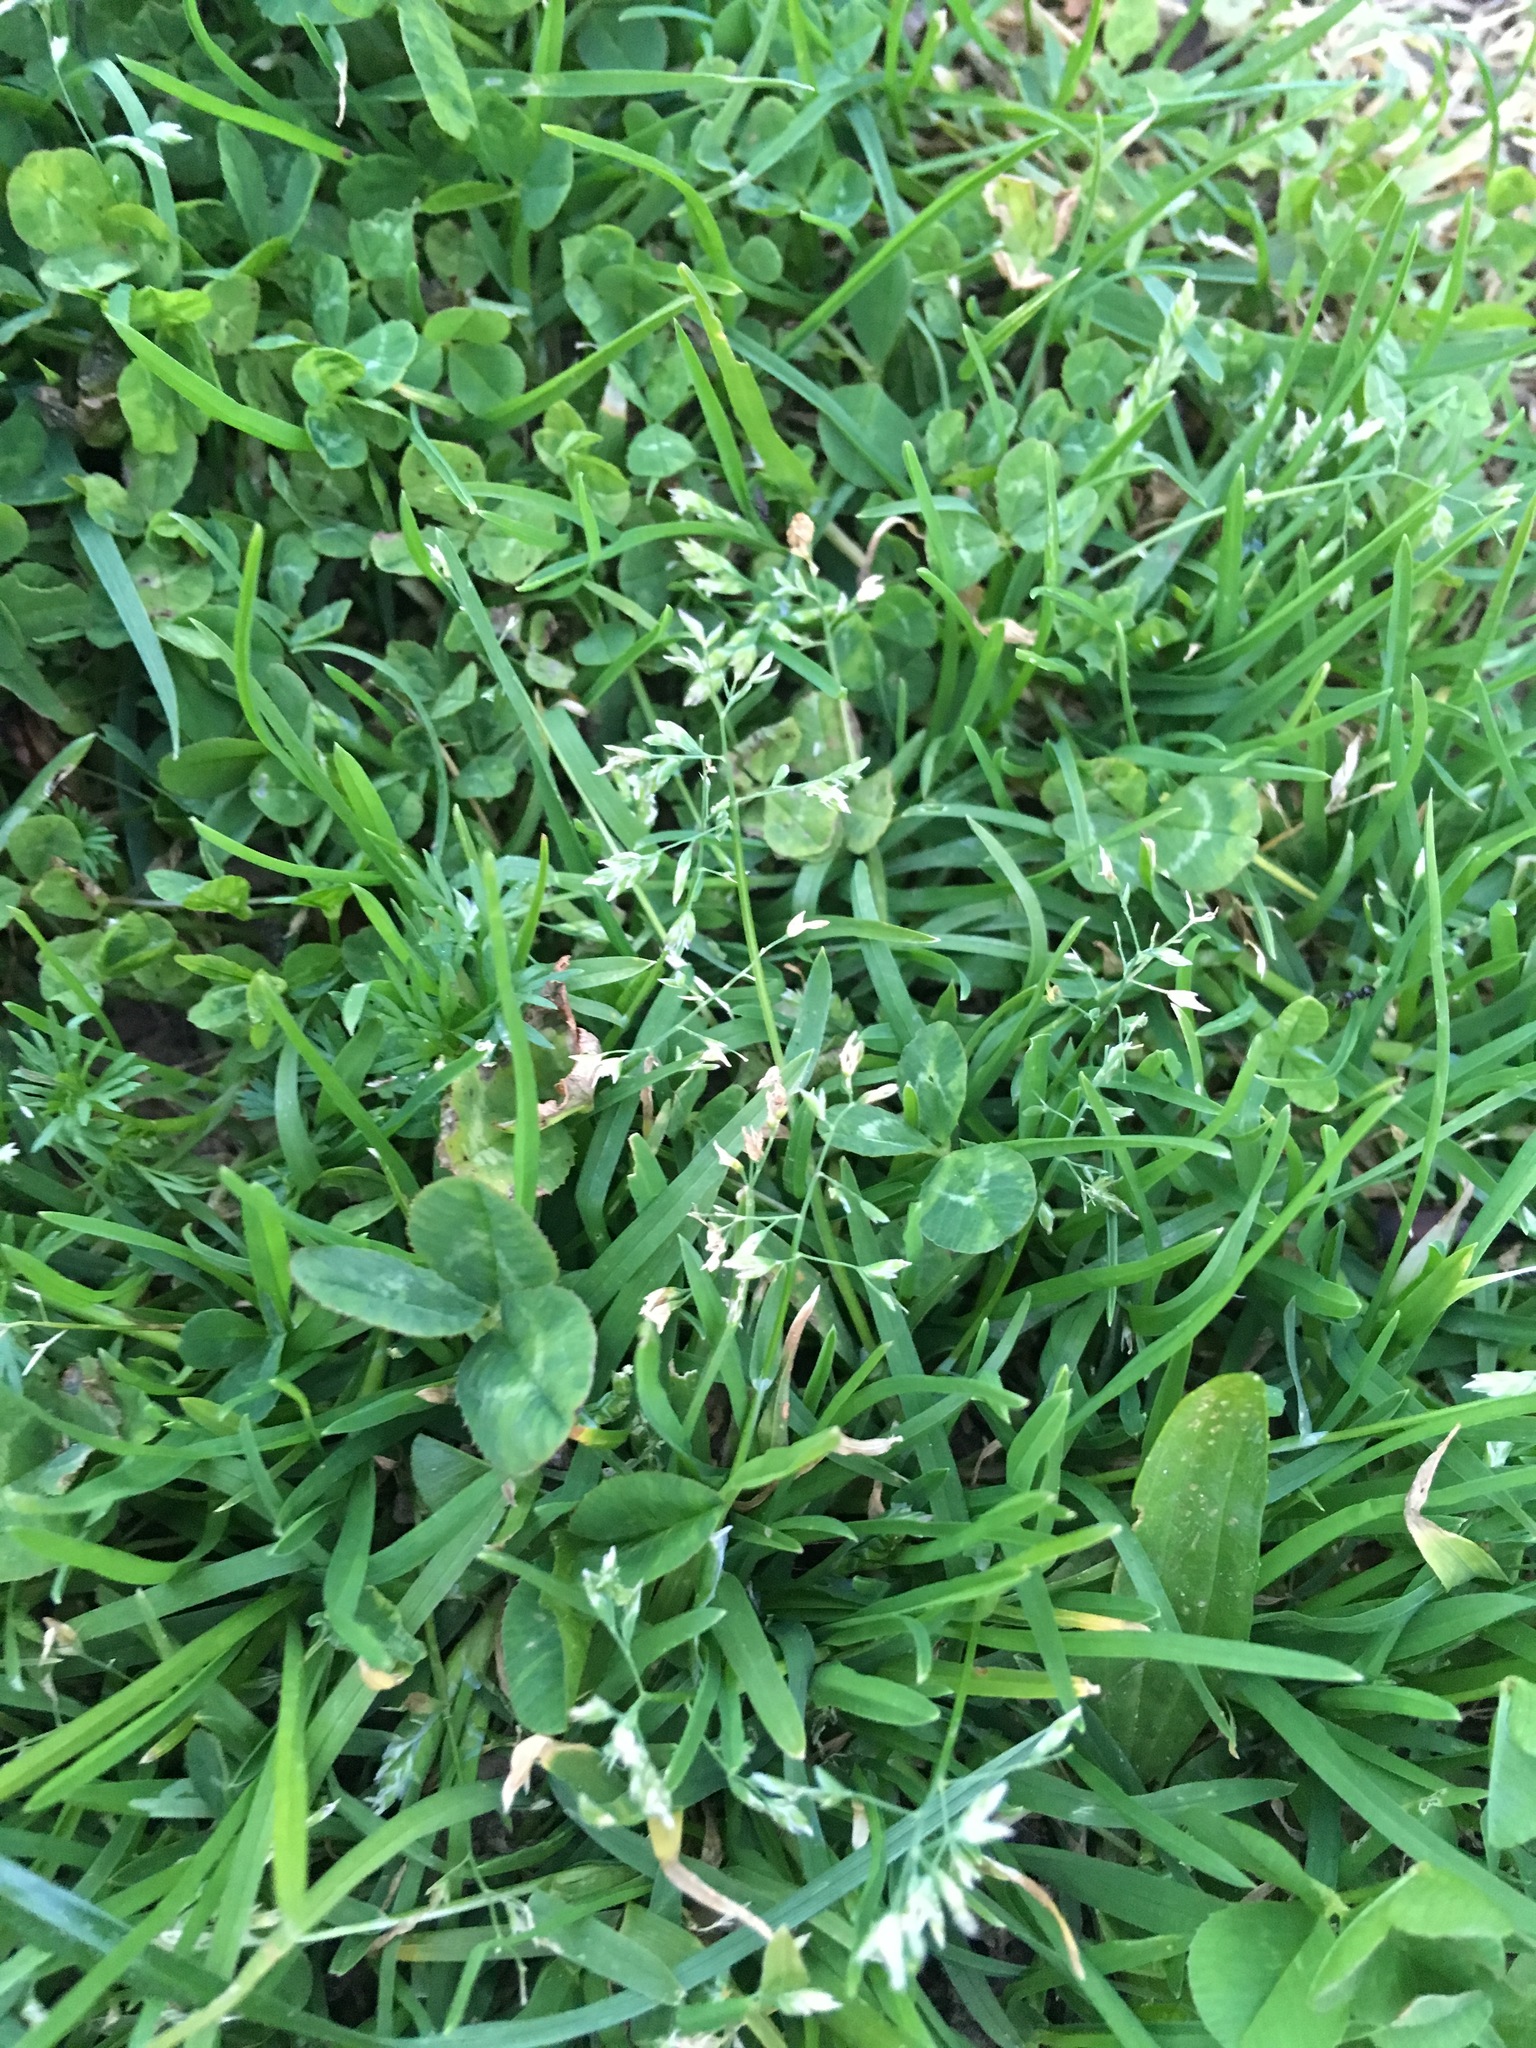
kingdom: Plantae
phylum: Tracheophyta
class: Liliopsida
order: Poales
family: Poaceae
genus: Poa
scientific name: Poa annua
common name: Annual bluegrass
